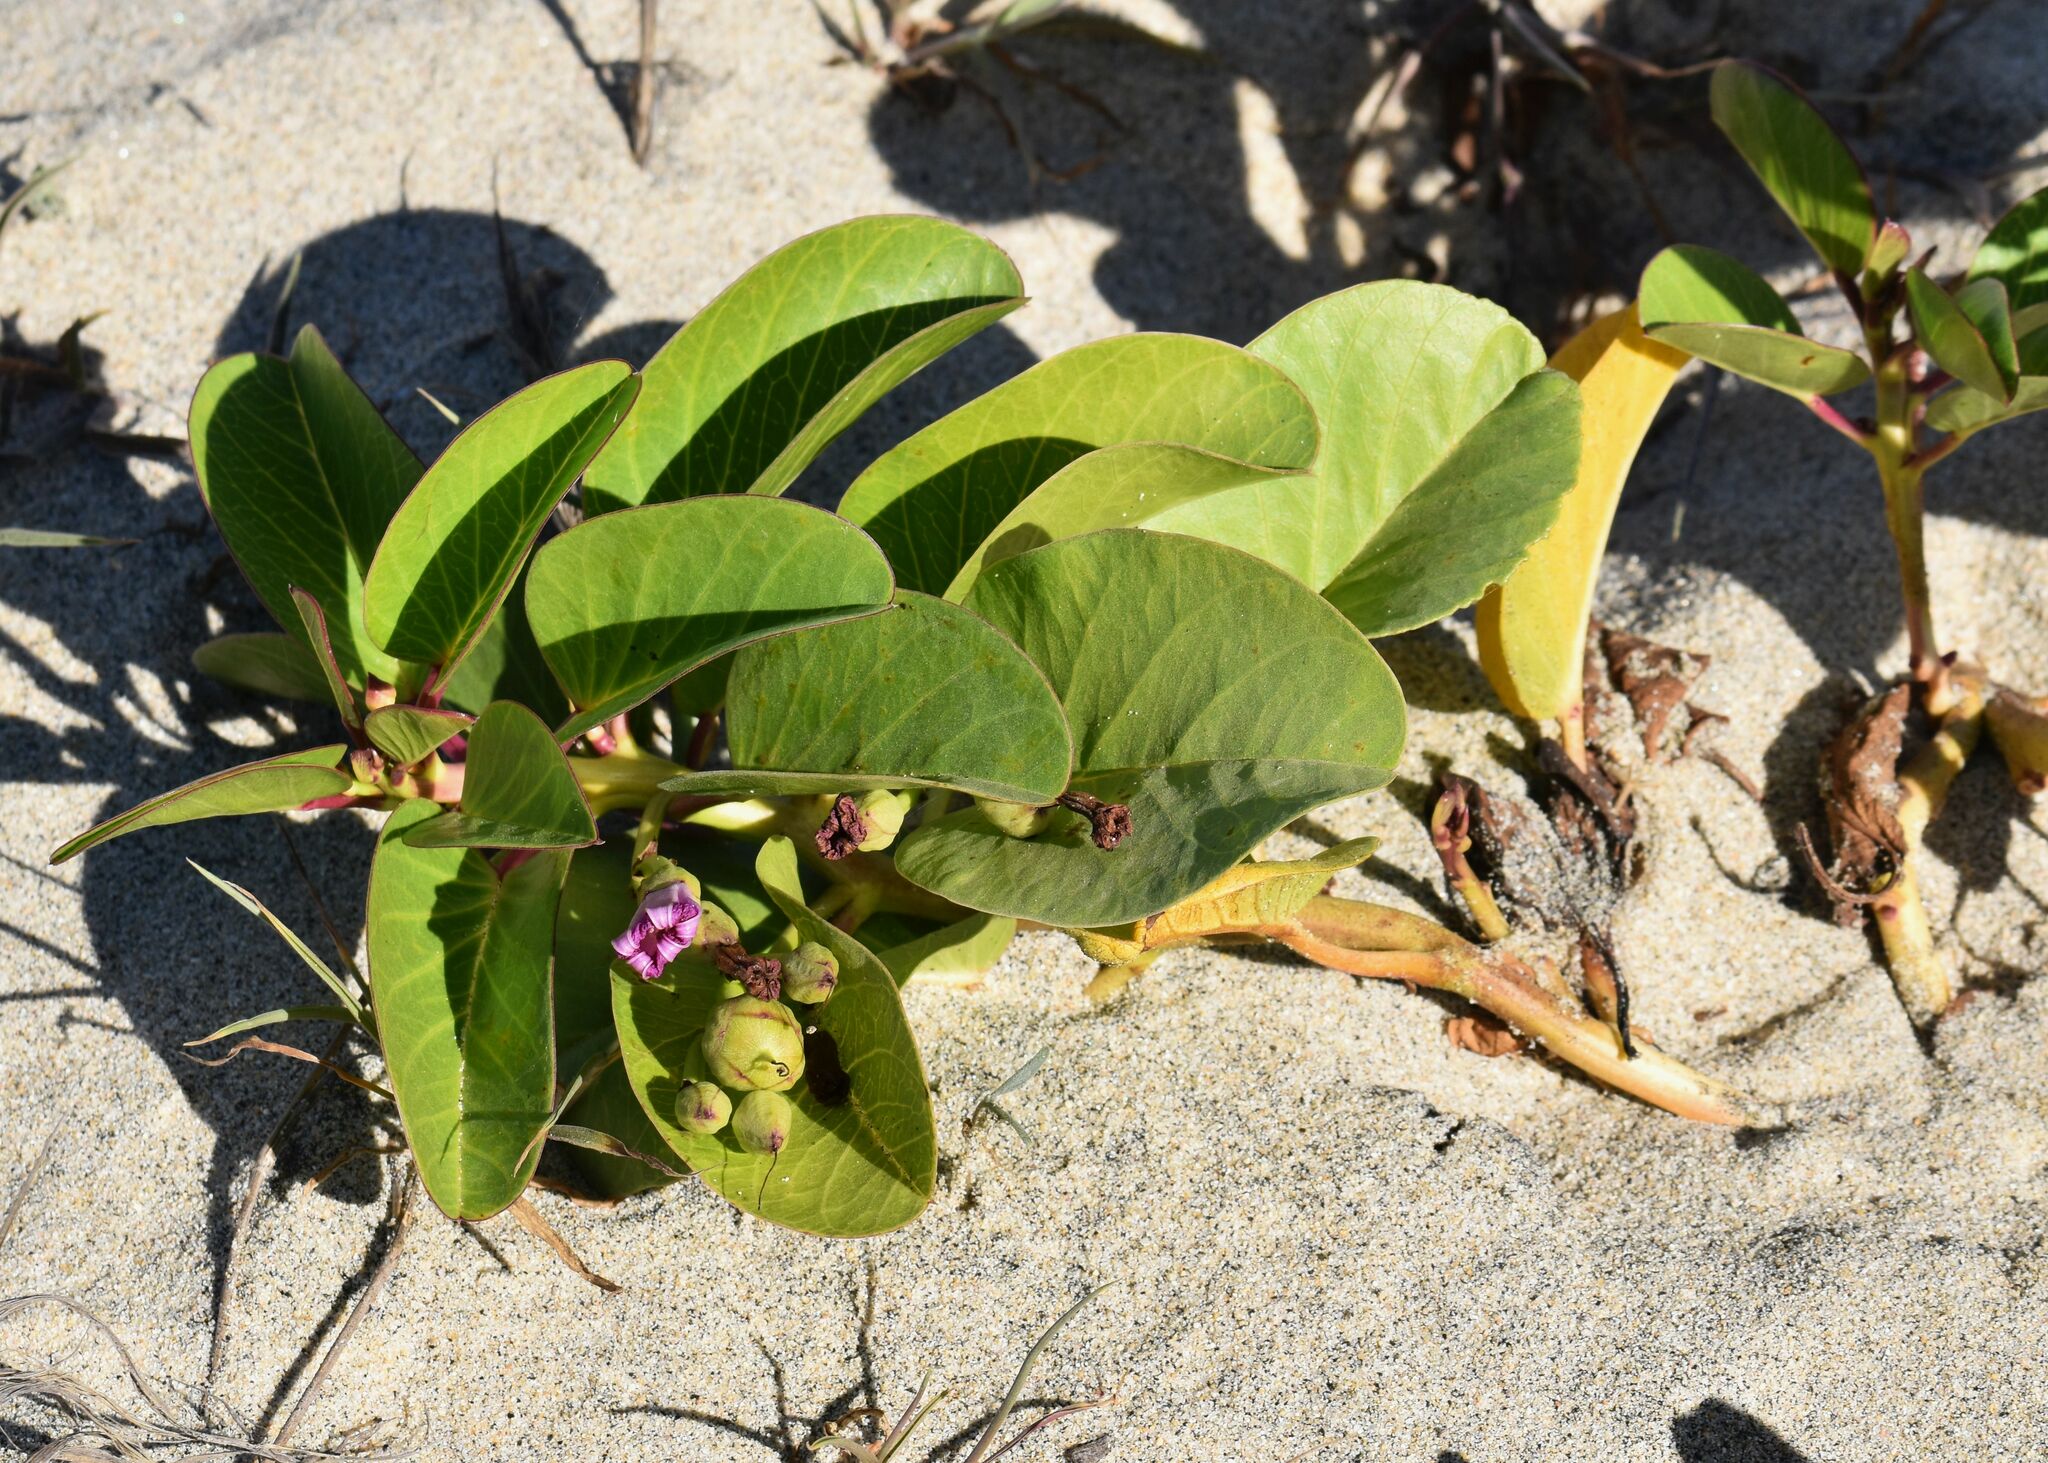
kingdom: Plantae
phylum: Tracheophyta
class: Magnoliopsida
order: Solanales
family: Convolvulaceae
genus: Ipomoea
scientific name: Ipomoea pes-caprae
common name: Beach morning glory
